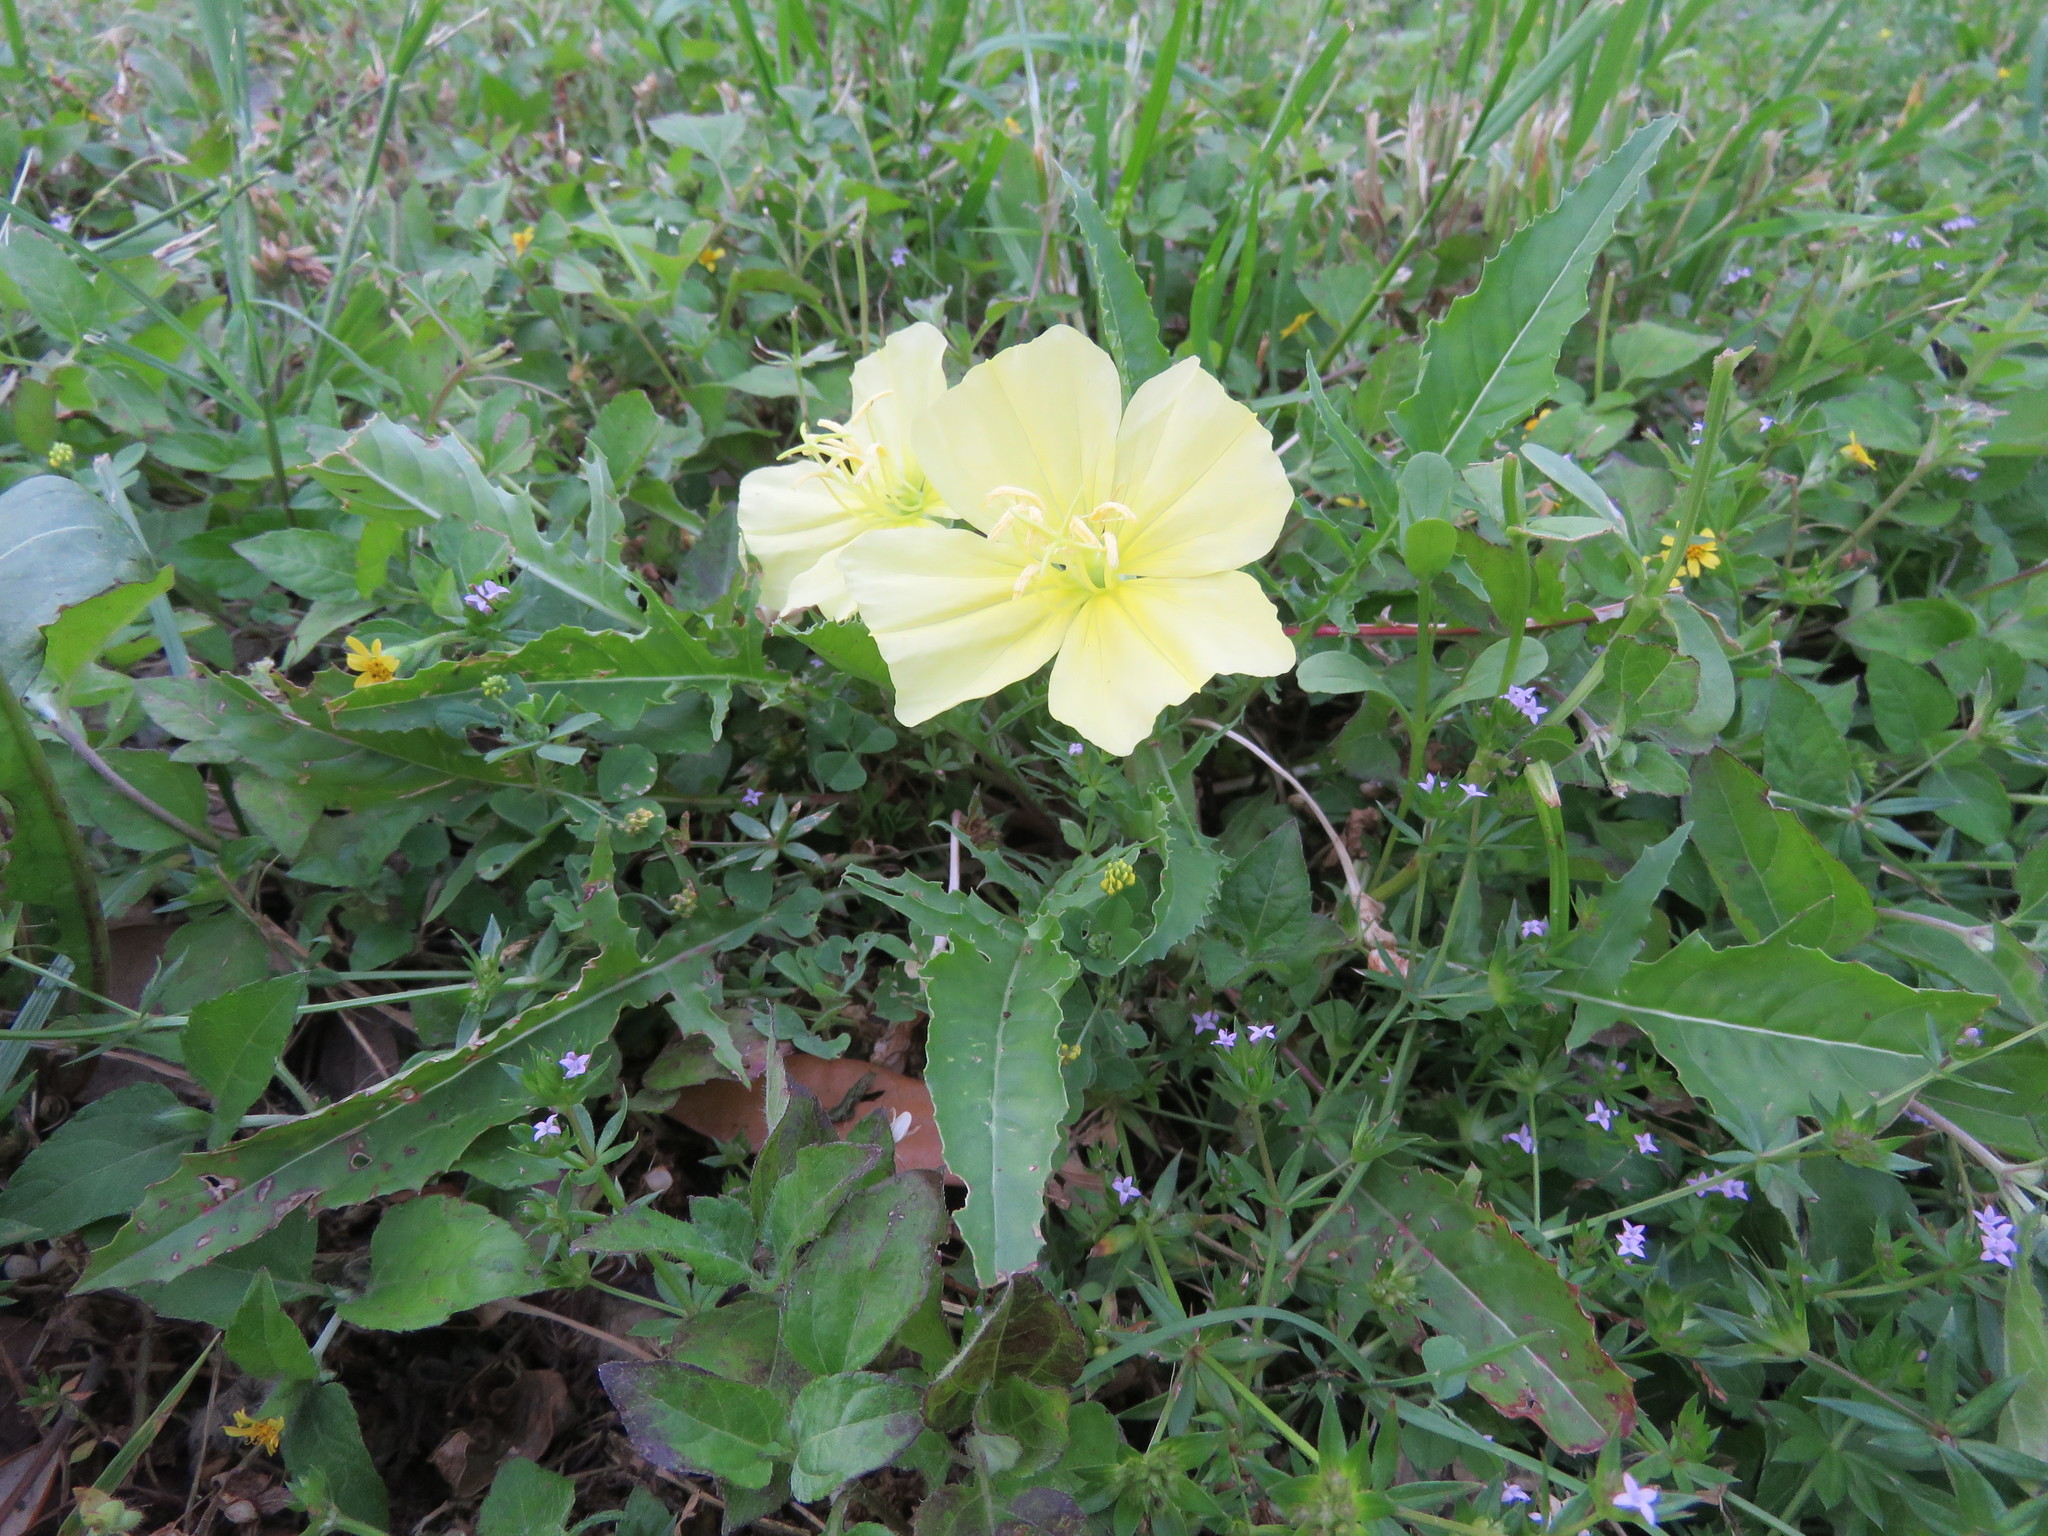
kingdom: Plantae
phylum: Tracheophyta
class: Magnoliopsida
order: Myrtales
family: Onagraceae
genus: Oenothera
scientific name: Oenothera triloba
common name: Sessile evening-primrose
